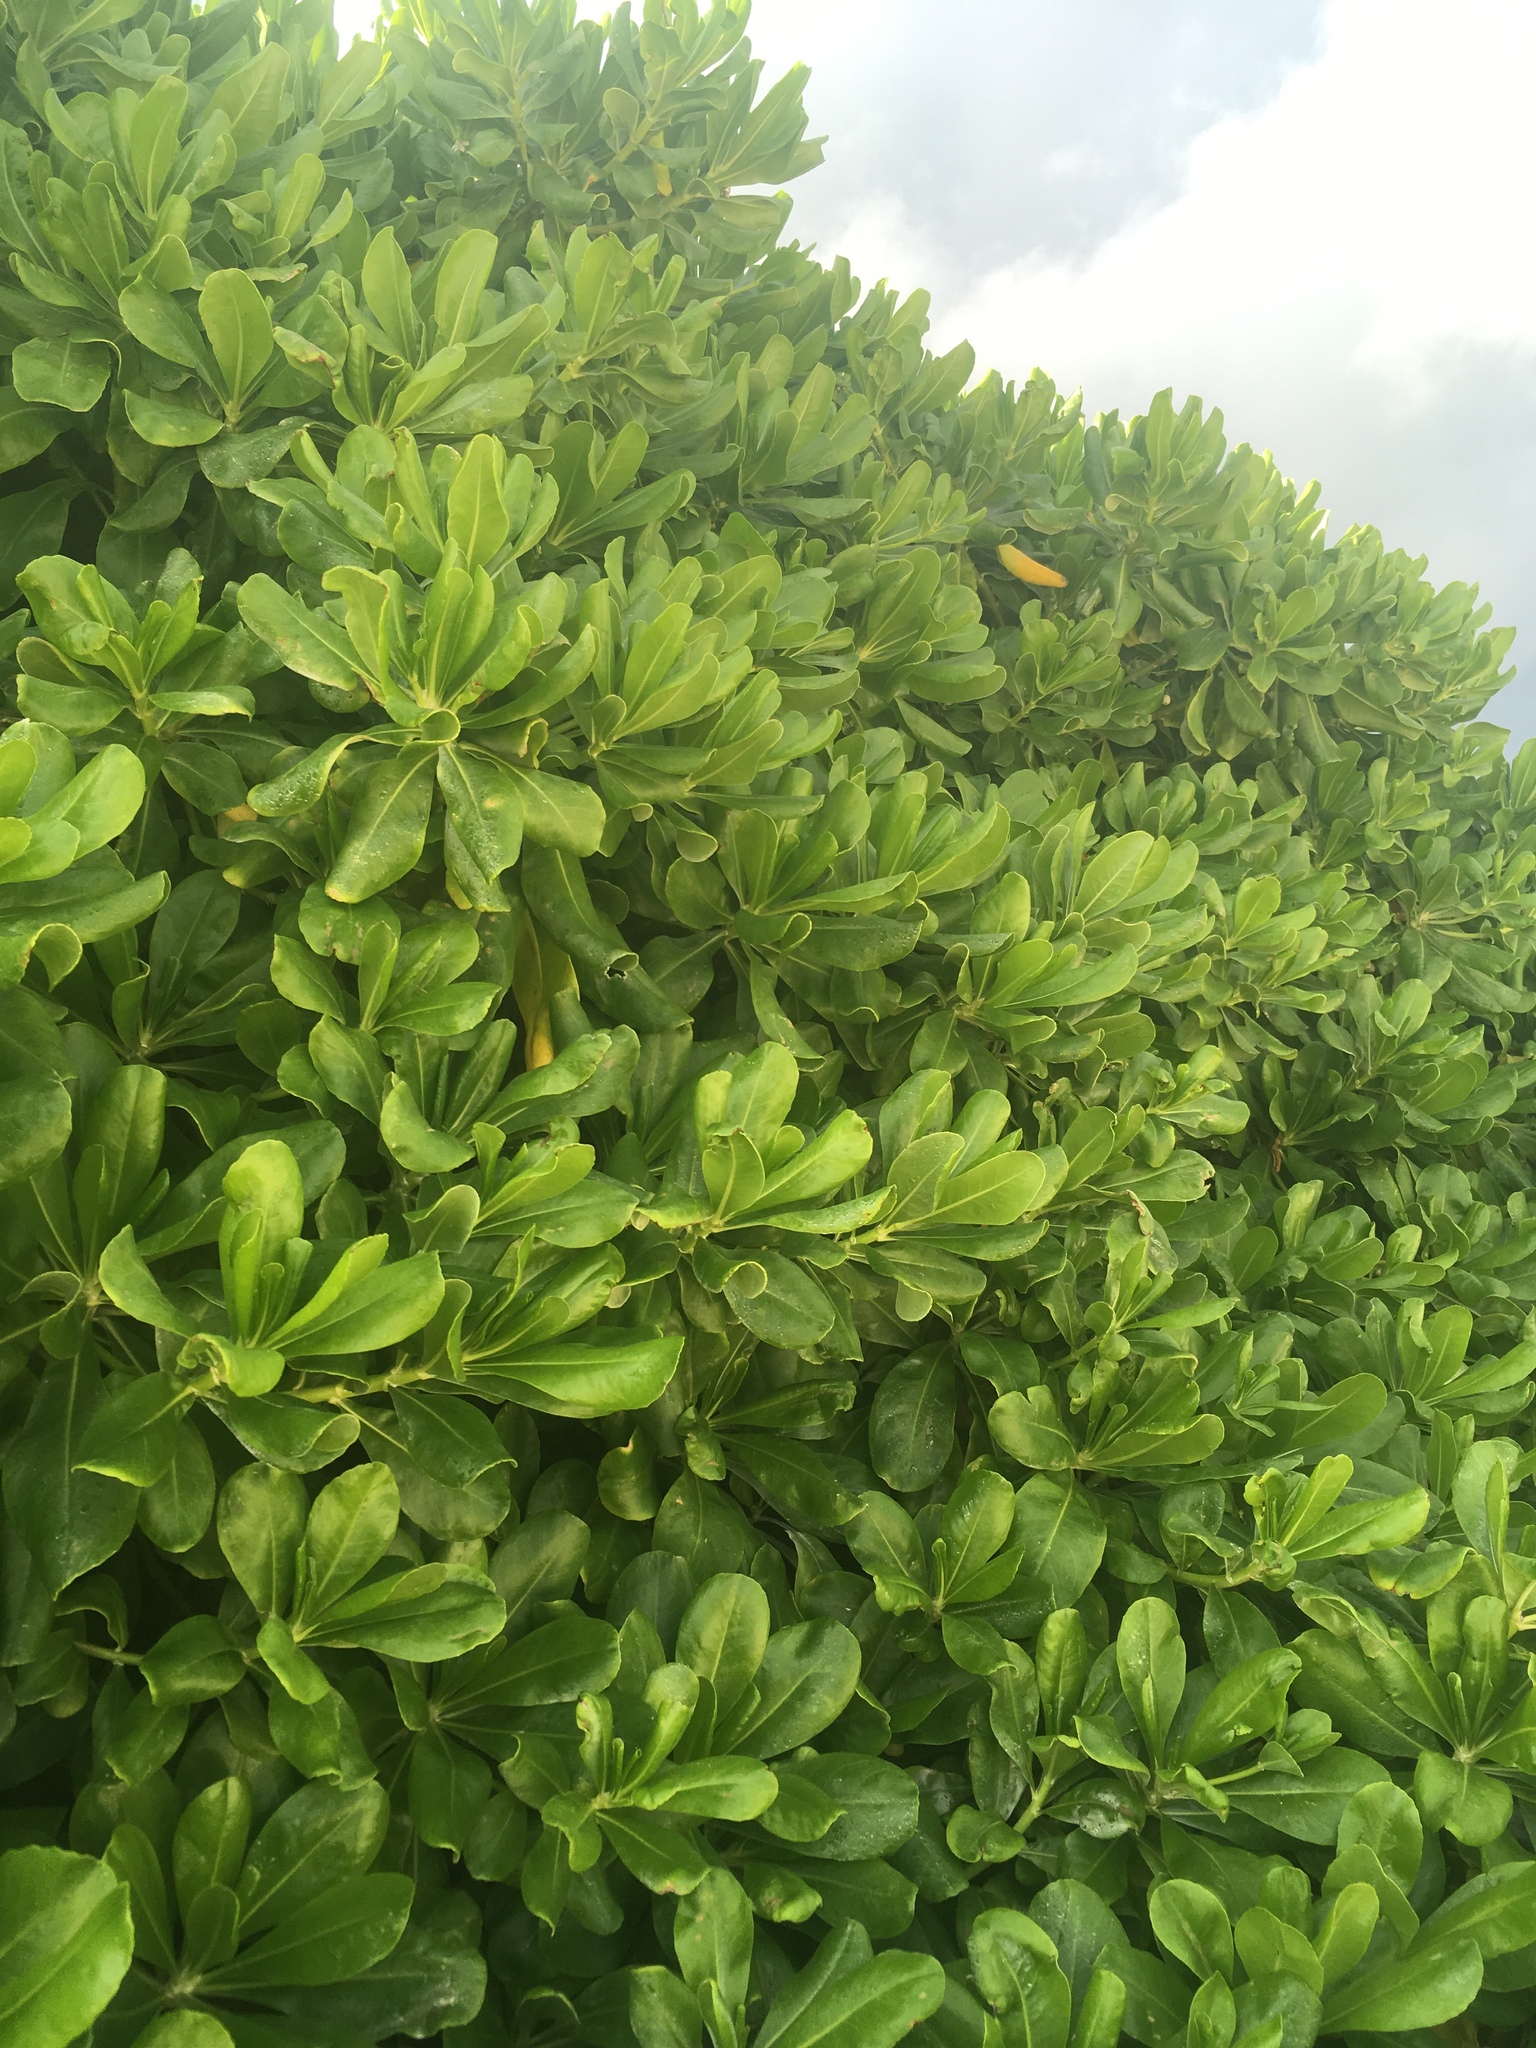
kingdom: Plantae
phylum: Tracheophyta
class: Magnoliopsida
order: Asterales
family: Goodeniaceae
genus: Scaevola
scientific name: Scaevola taccada
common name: Sea lettucetree
